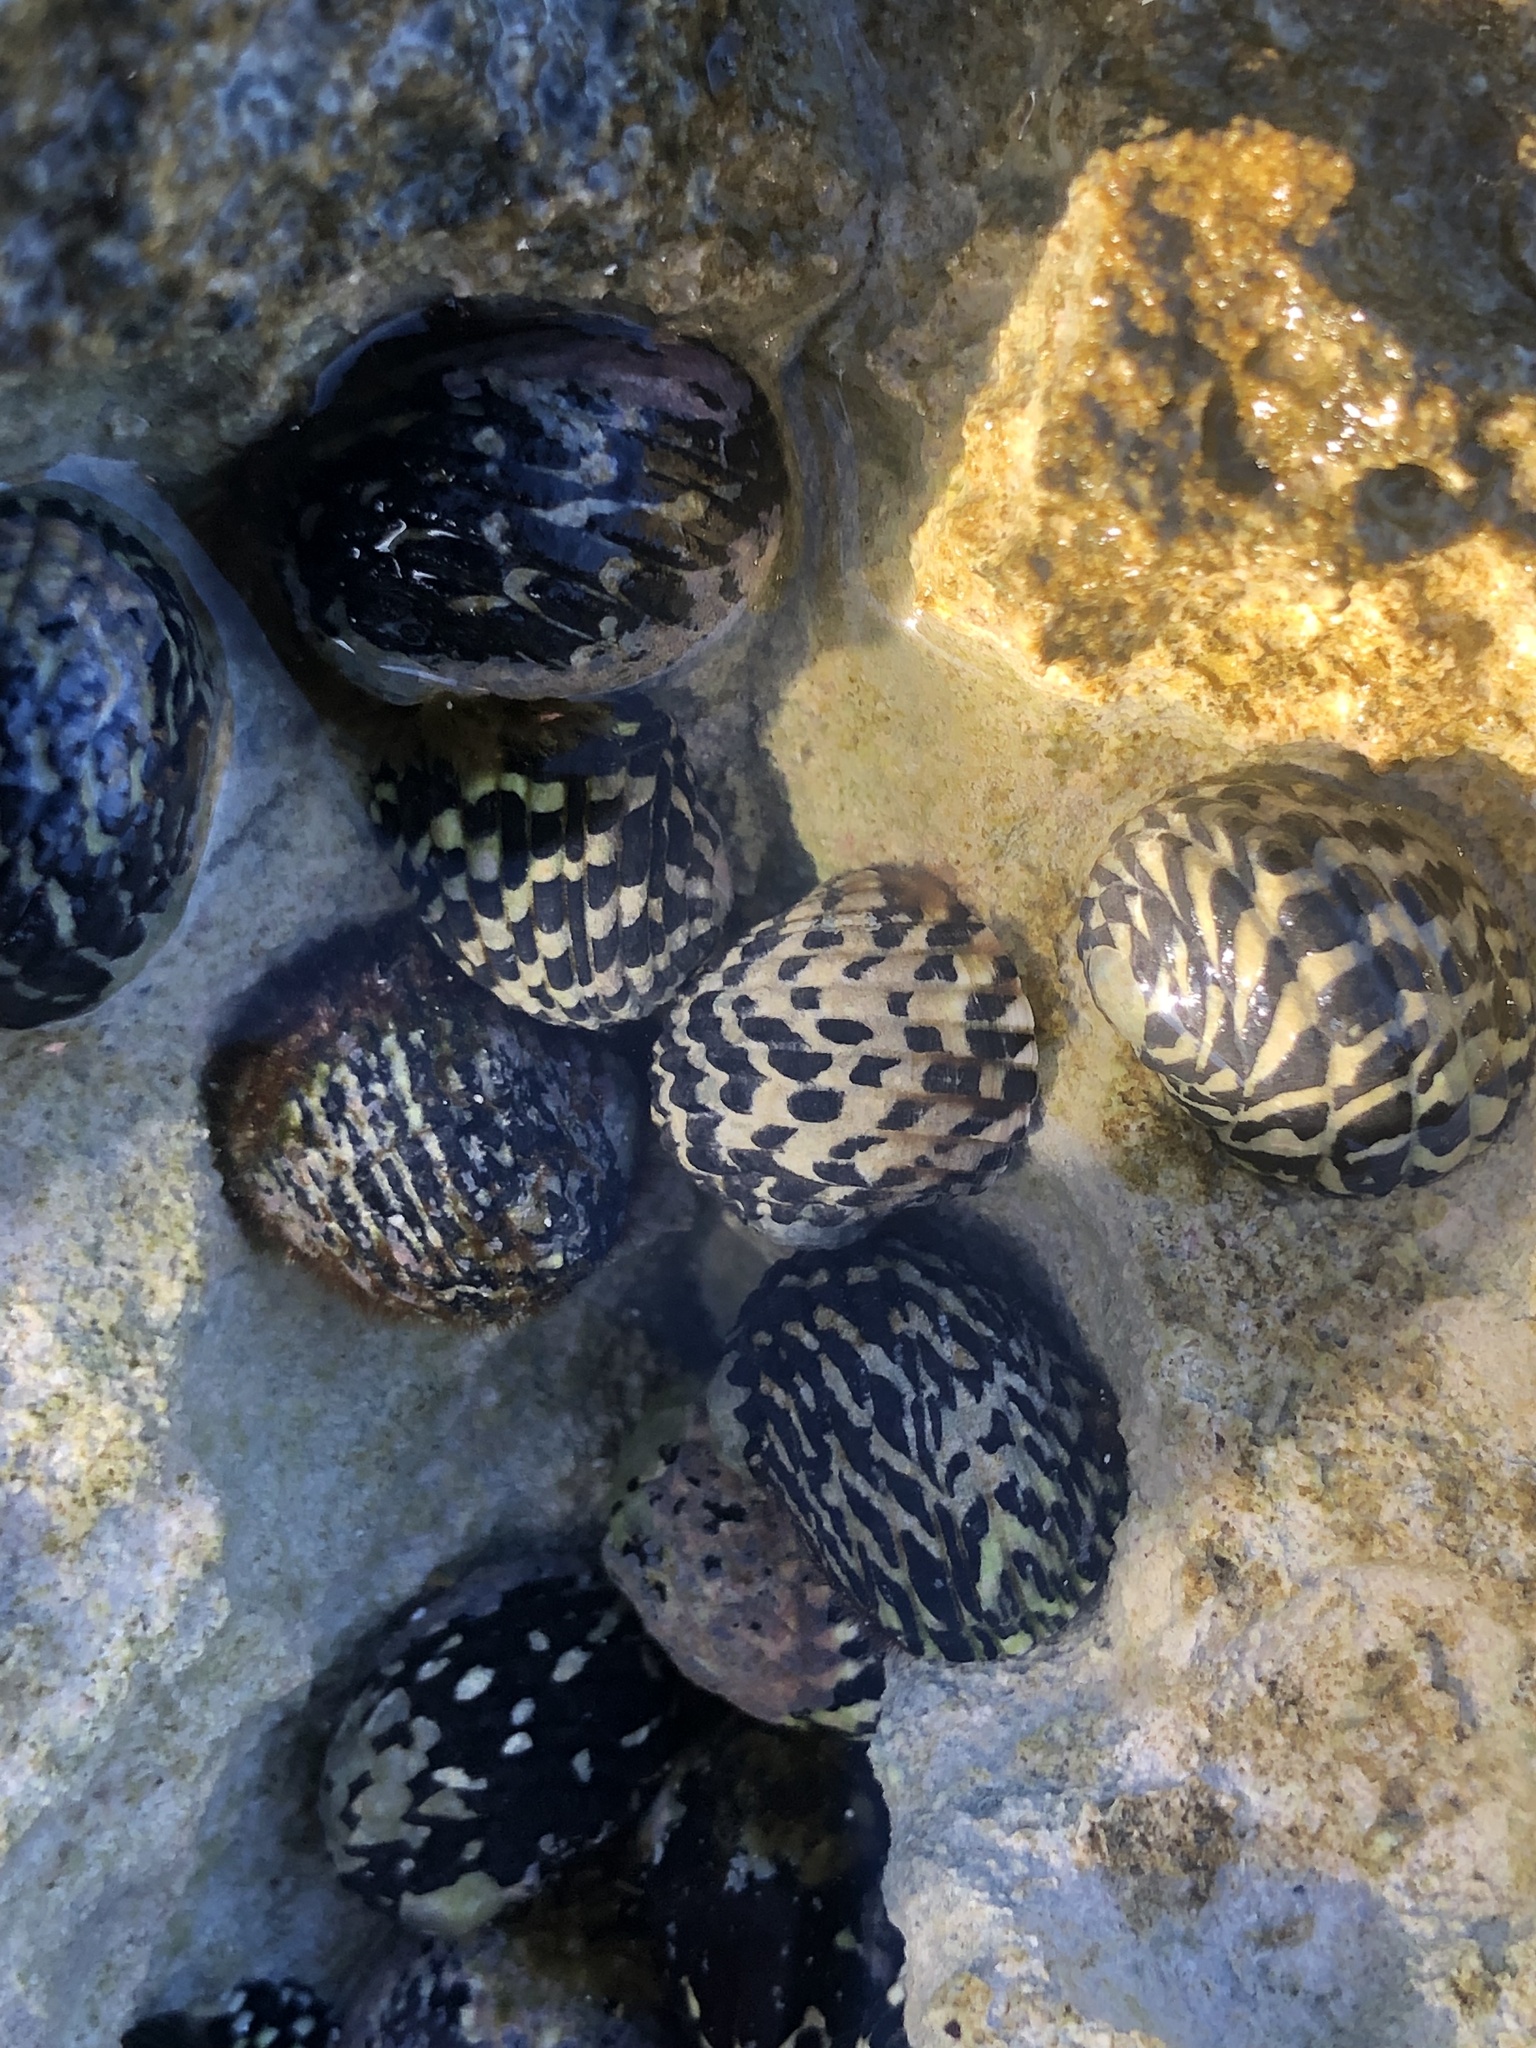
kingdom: Animalia
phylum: Mollusca
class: Gastropoda
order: Cycloneritida
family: Neritidae
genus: Nerita
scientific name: Nerita tessellata
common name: Checkered nerite
